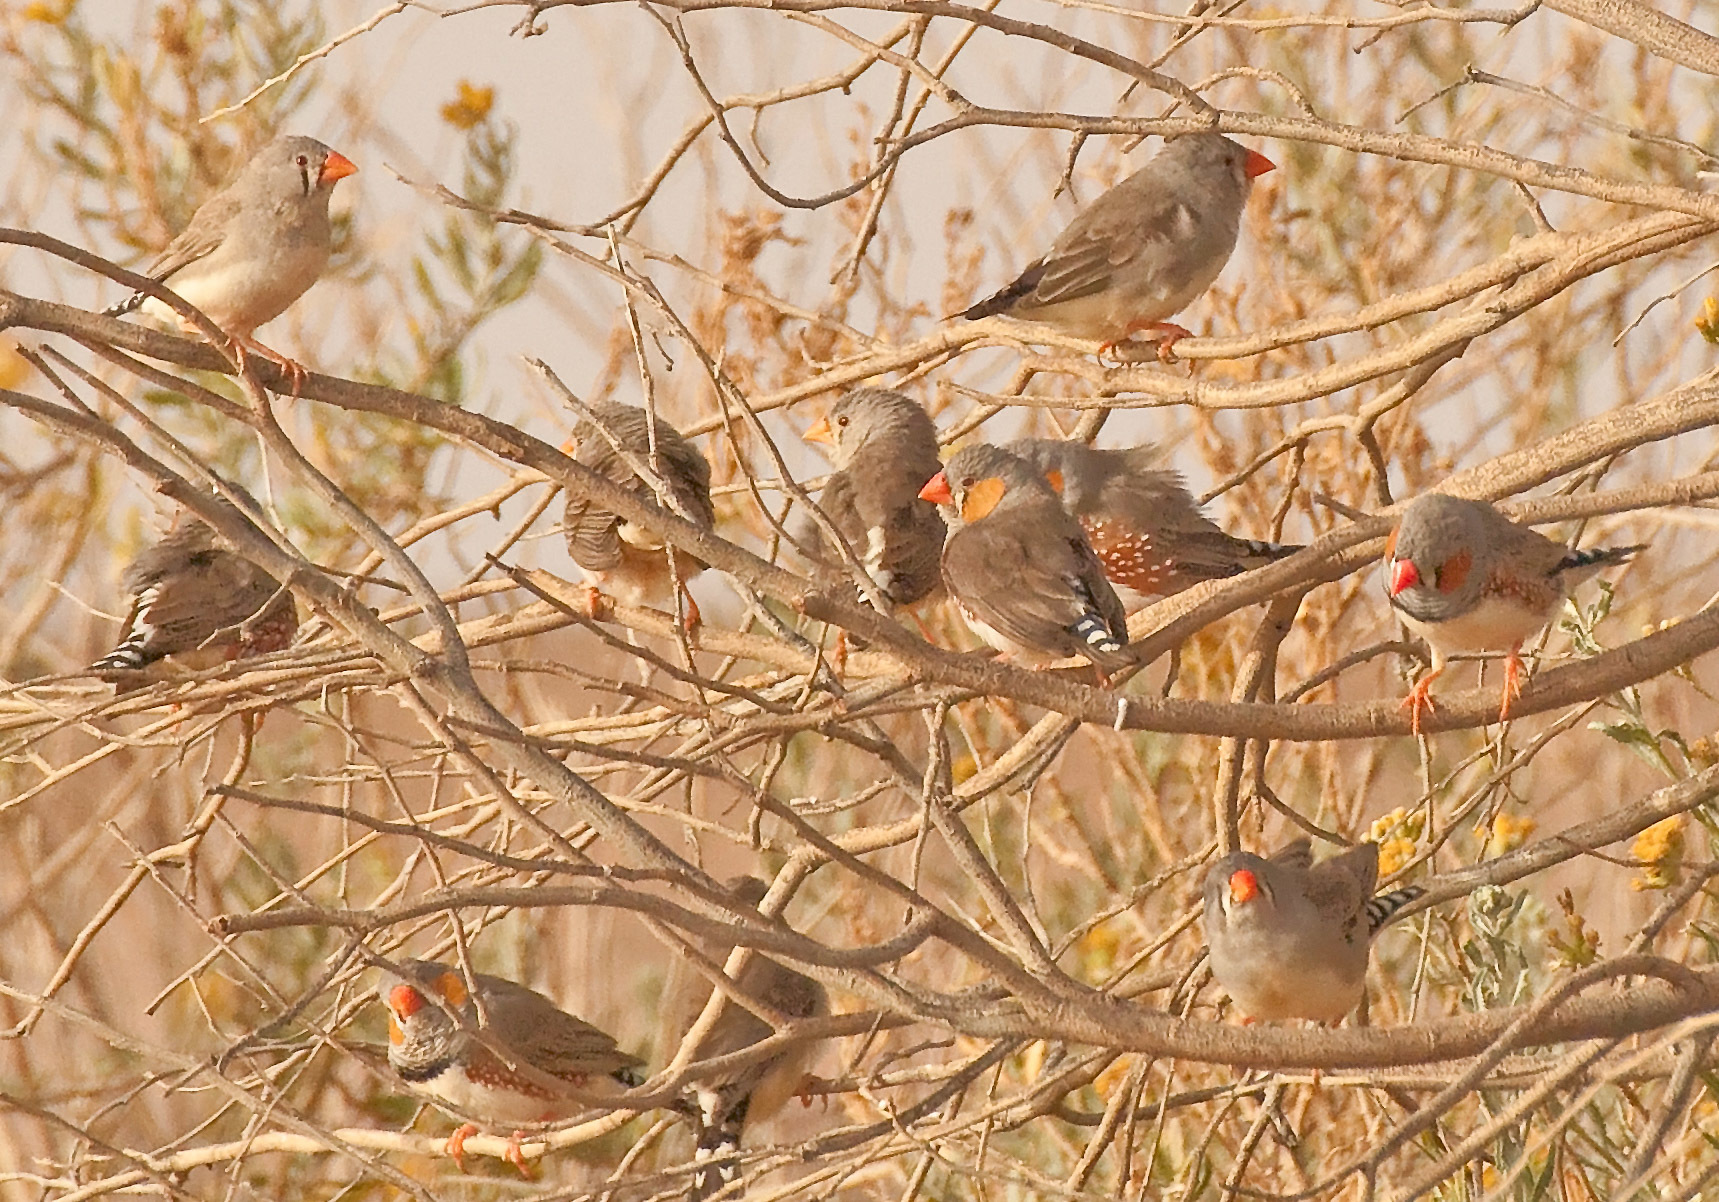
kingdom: Animalia
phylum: Chordata
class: Aves
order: Passeriformes
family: Estrildidae
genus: Taeniopygia
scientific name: Taeniopygia guttata
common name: Zebra finch
